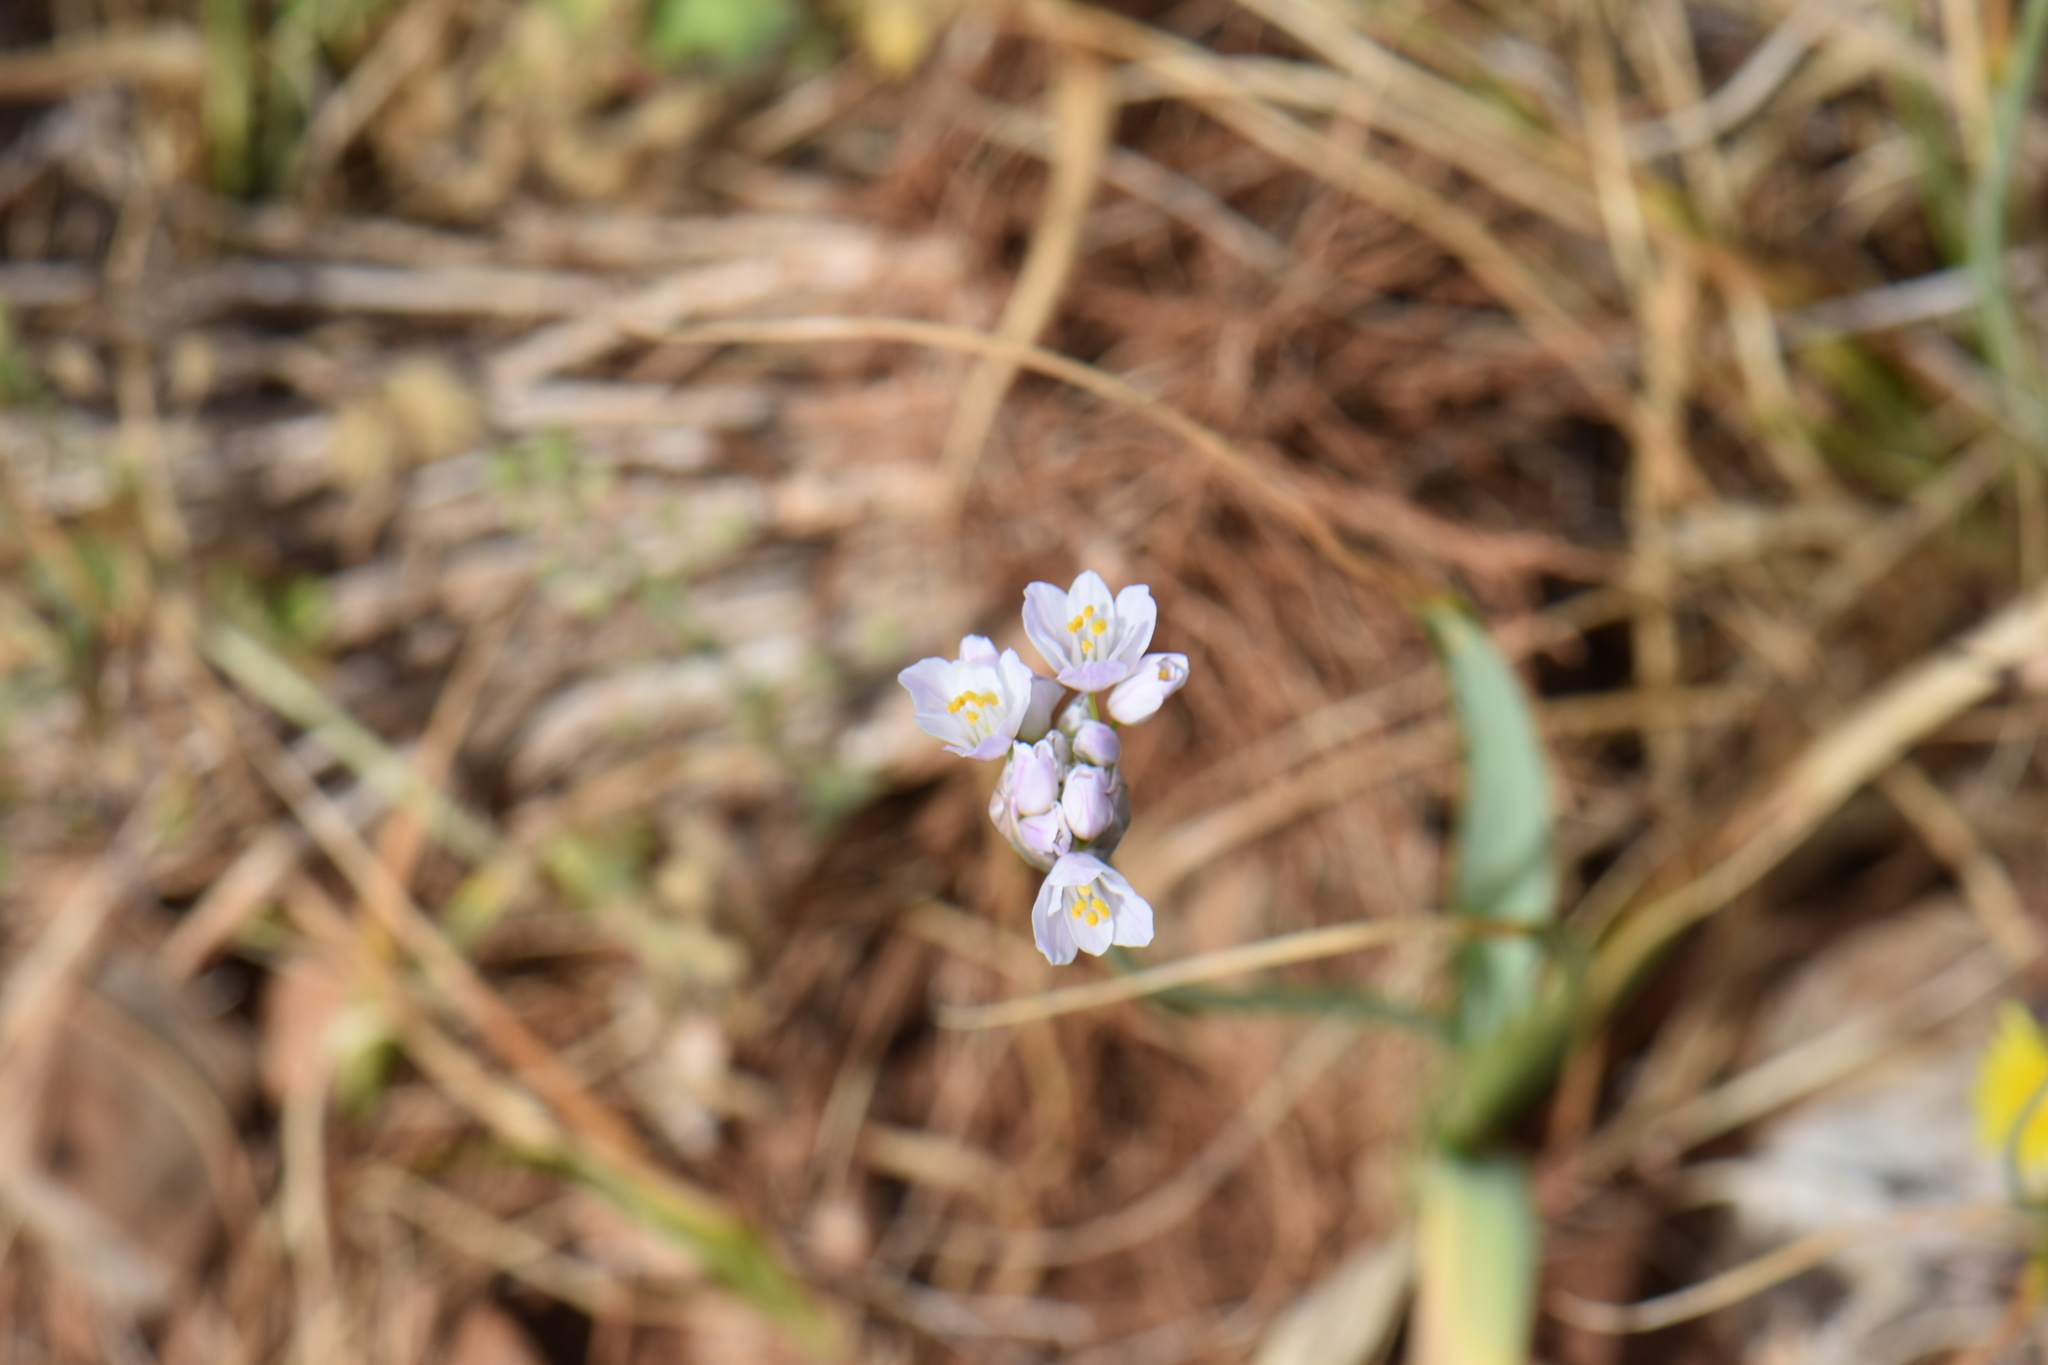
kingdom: Plantae
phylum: Tracheophyta
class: Liliopsida
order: Asparagales
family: Amaryllidaceae
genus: Allium
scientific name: Allium roseum
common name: Rosy garlic
